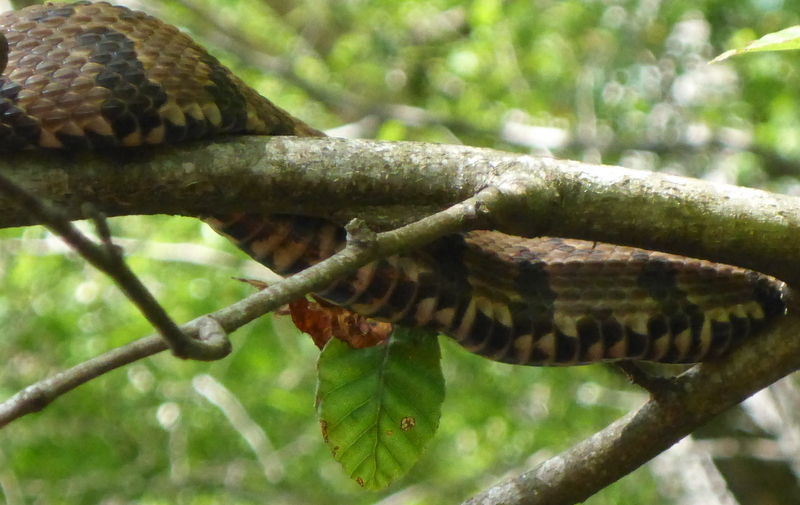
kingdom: Animalia
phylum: Chordata
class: Squamata
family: Colubridae
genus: Nerodia
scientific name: Nerodia taxispilota
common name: Brown water snake
